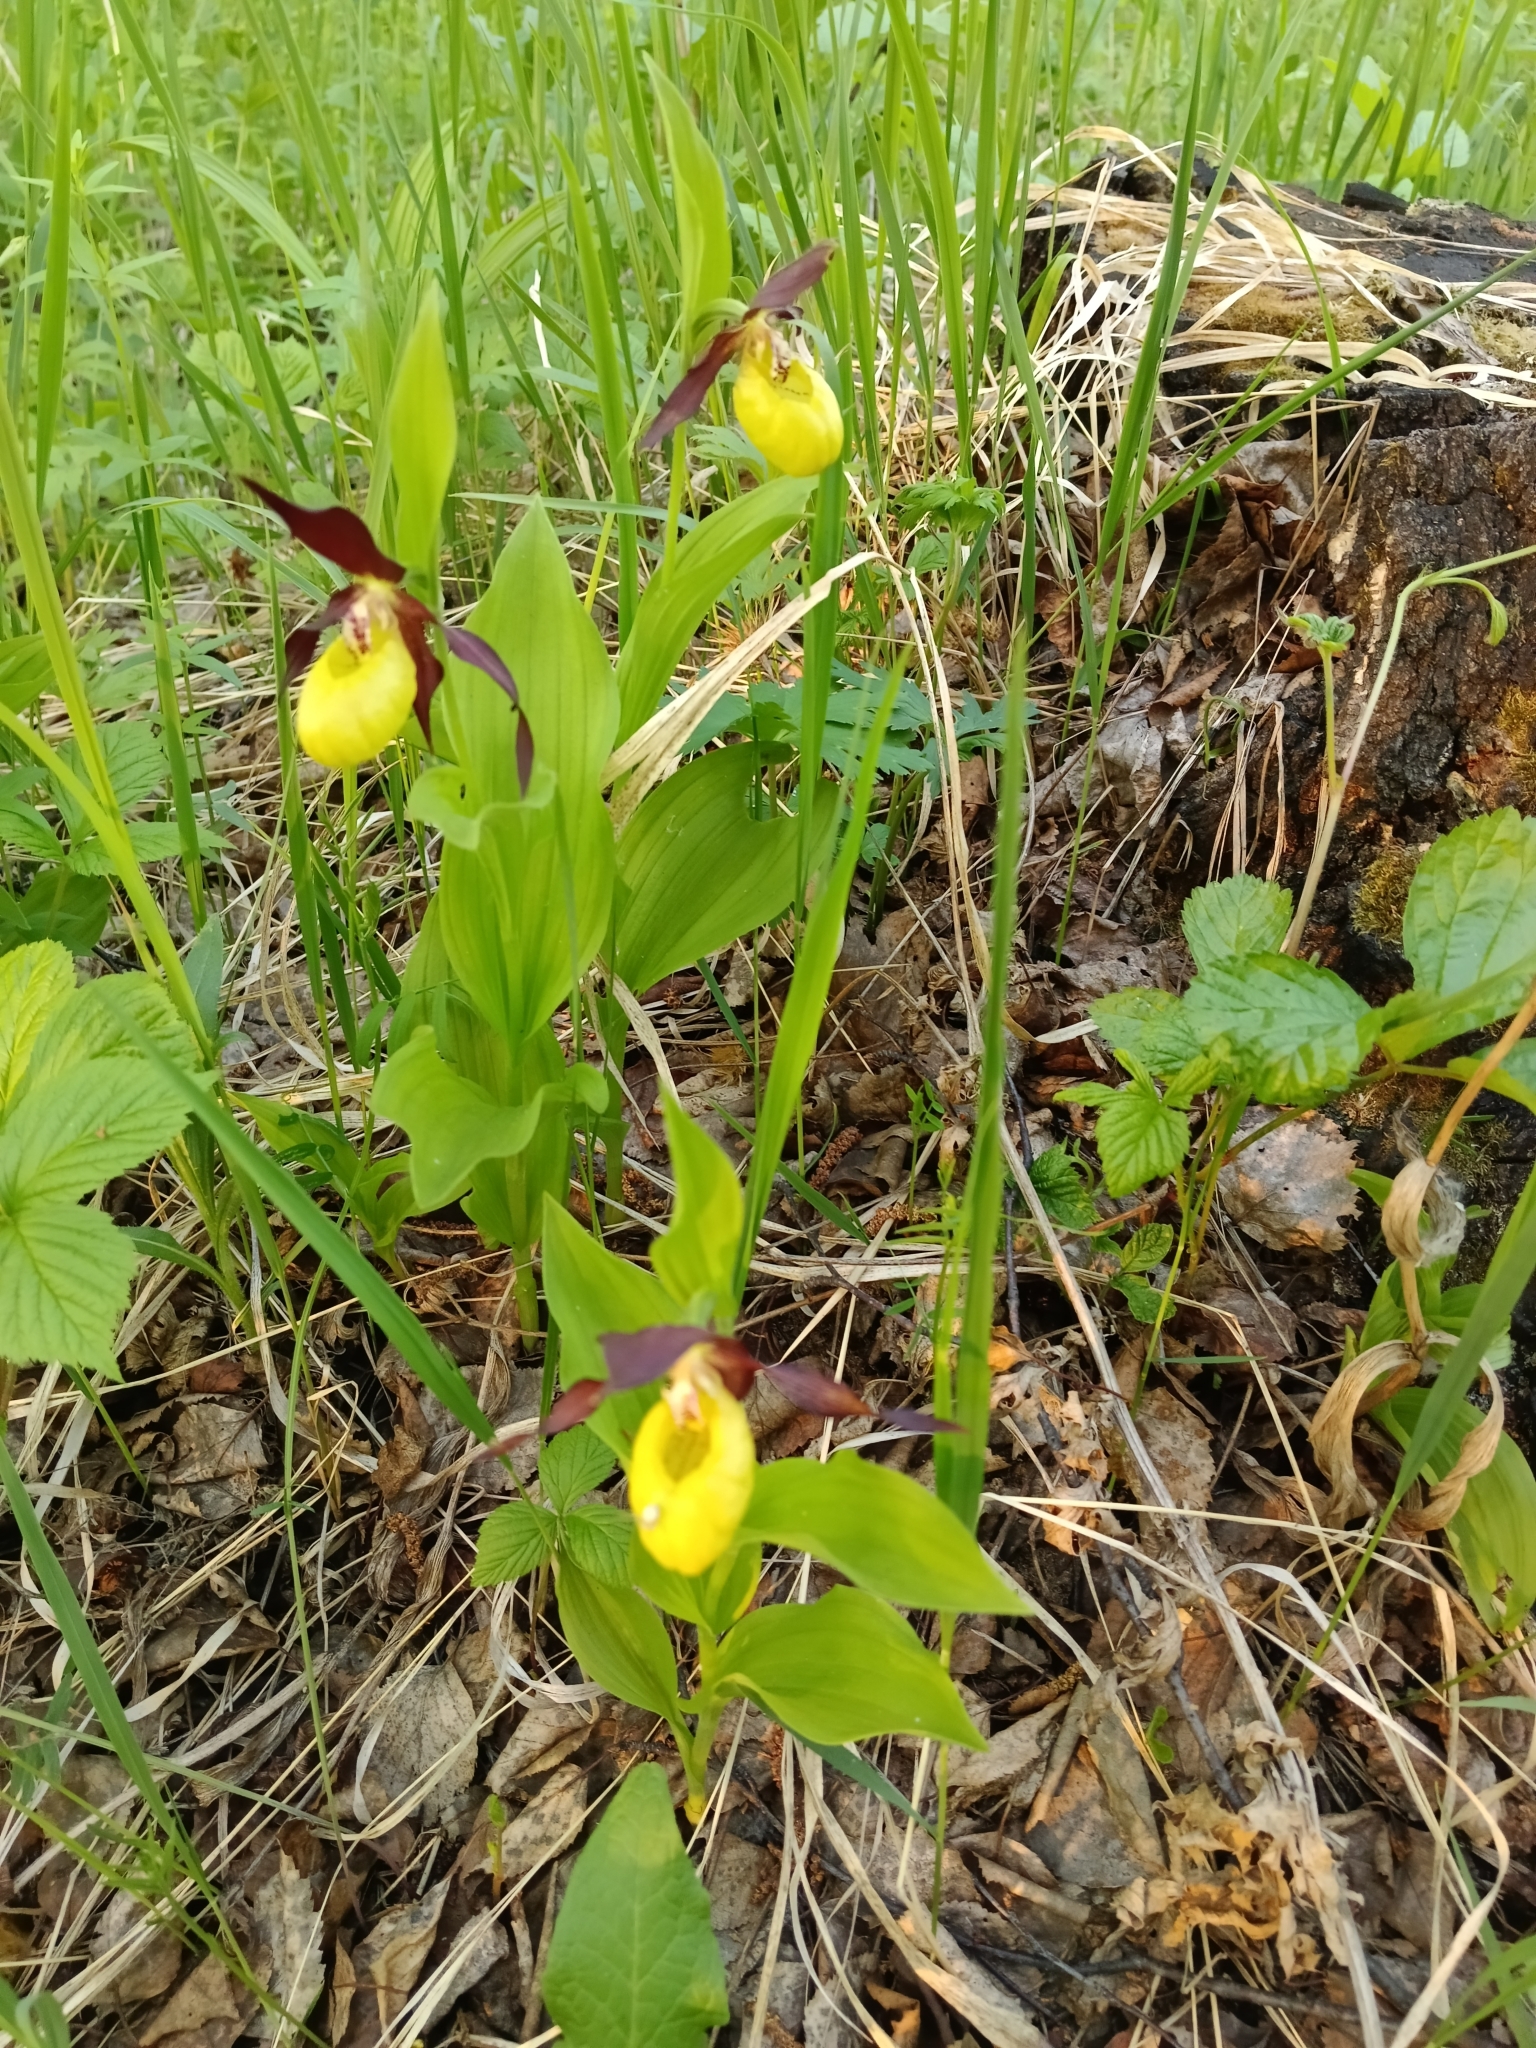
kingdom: Plantae
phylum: Tracheophyta
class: Liliopsida
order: Asparagales
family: Orchidaceae
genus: Cypripedium
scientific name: Cypripedium calceolus
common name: Lady's-slipper
